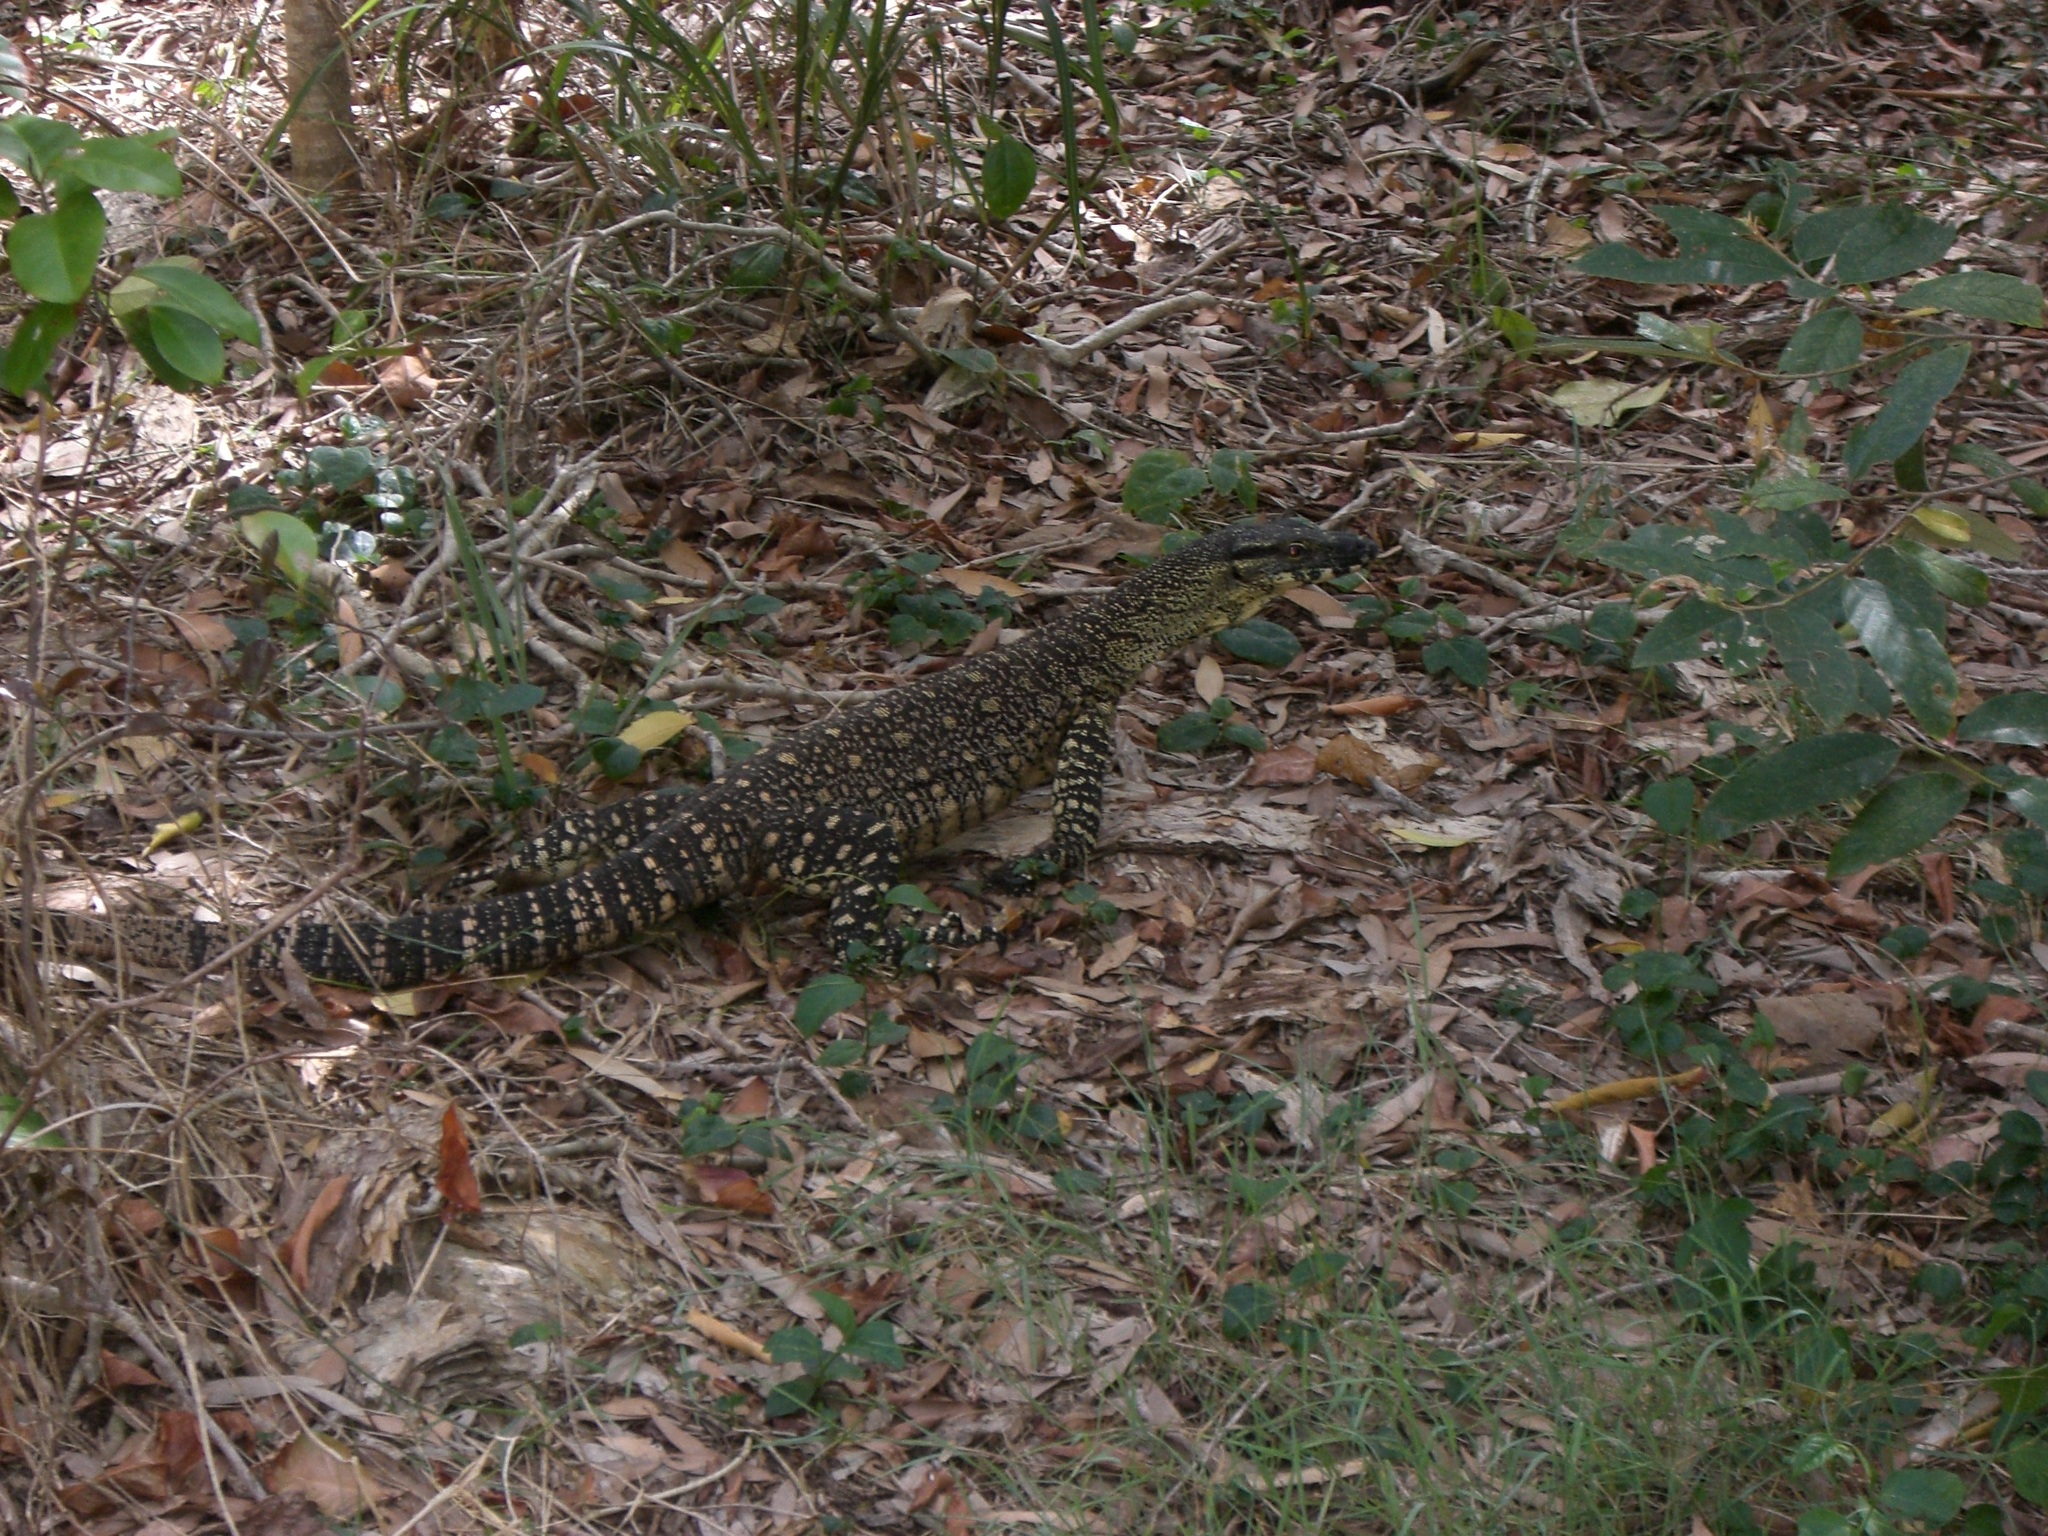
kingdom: Animalia
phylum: Chordata
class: Squamata
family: Varanidae
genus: Varanus
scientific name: Varanus varius
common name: Lace monitor
